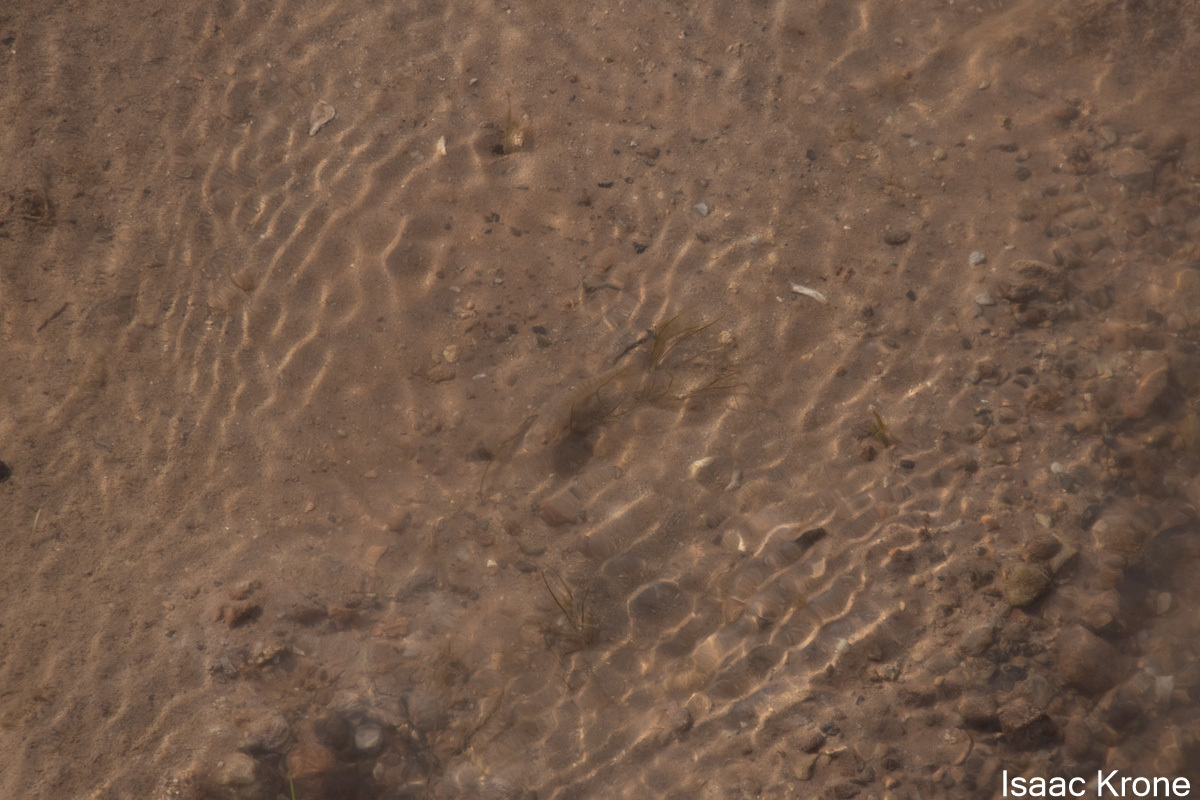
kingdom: Animalia
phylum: Chordata
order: Cyprinodontiformes
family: Fundulidae
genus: Fundulus
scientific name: Fundulus kansae
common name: Northern plains killifish
